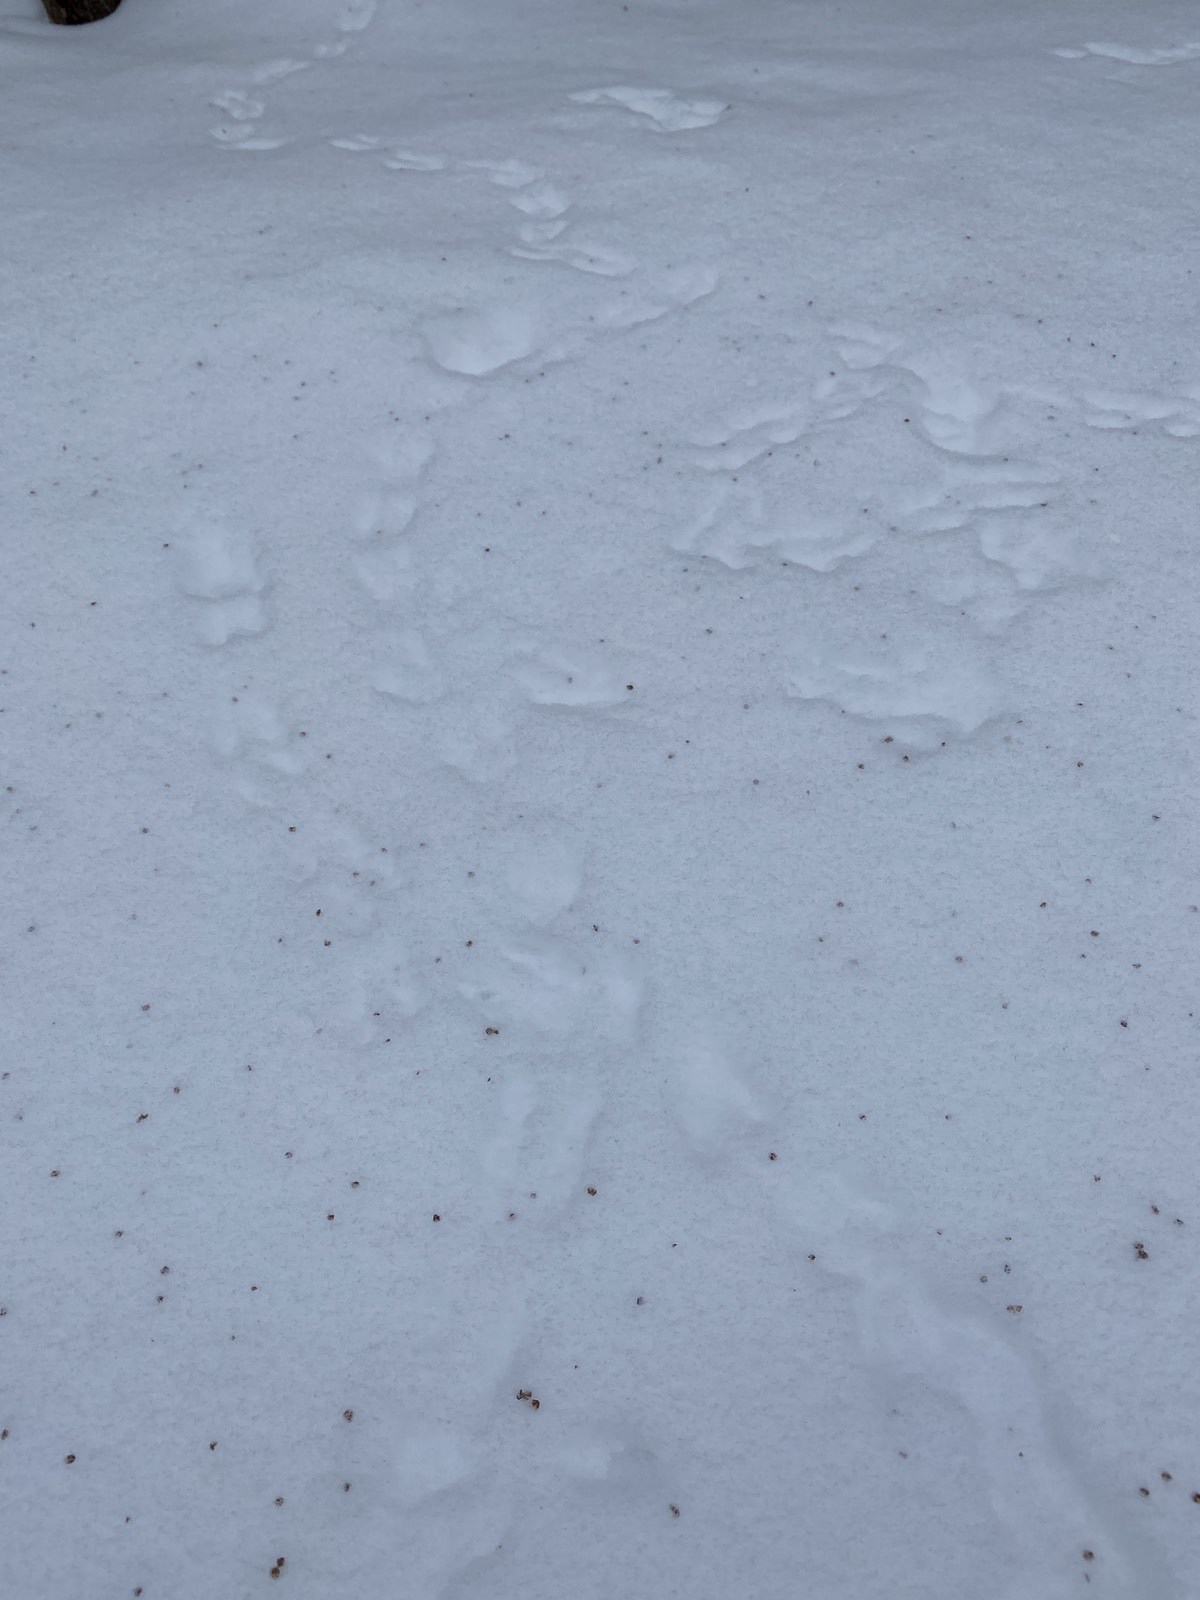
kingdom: Animalia
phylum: Chordata
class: Aves
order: Galliformes
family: Phasianidae
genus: Tetrastes
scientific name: Tetrastes bonasia
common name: Hazel grouse
